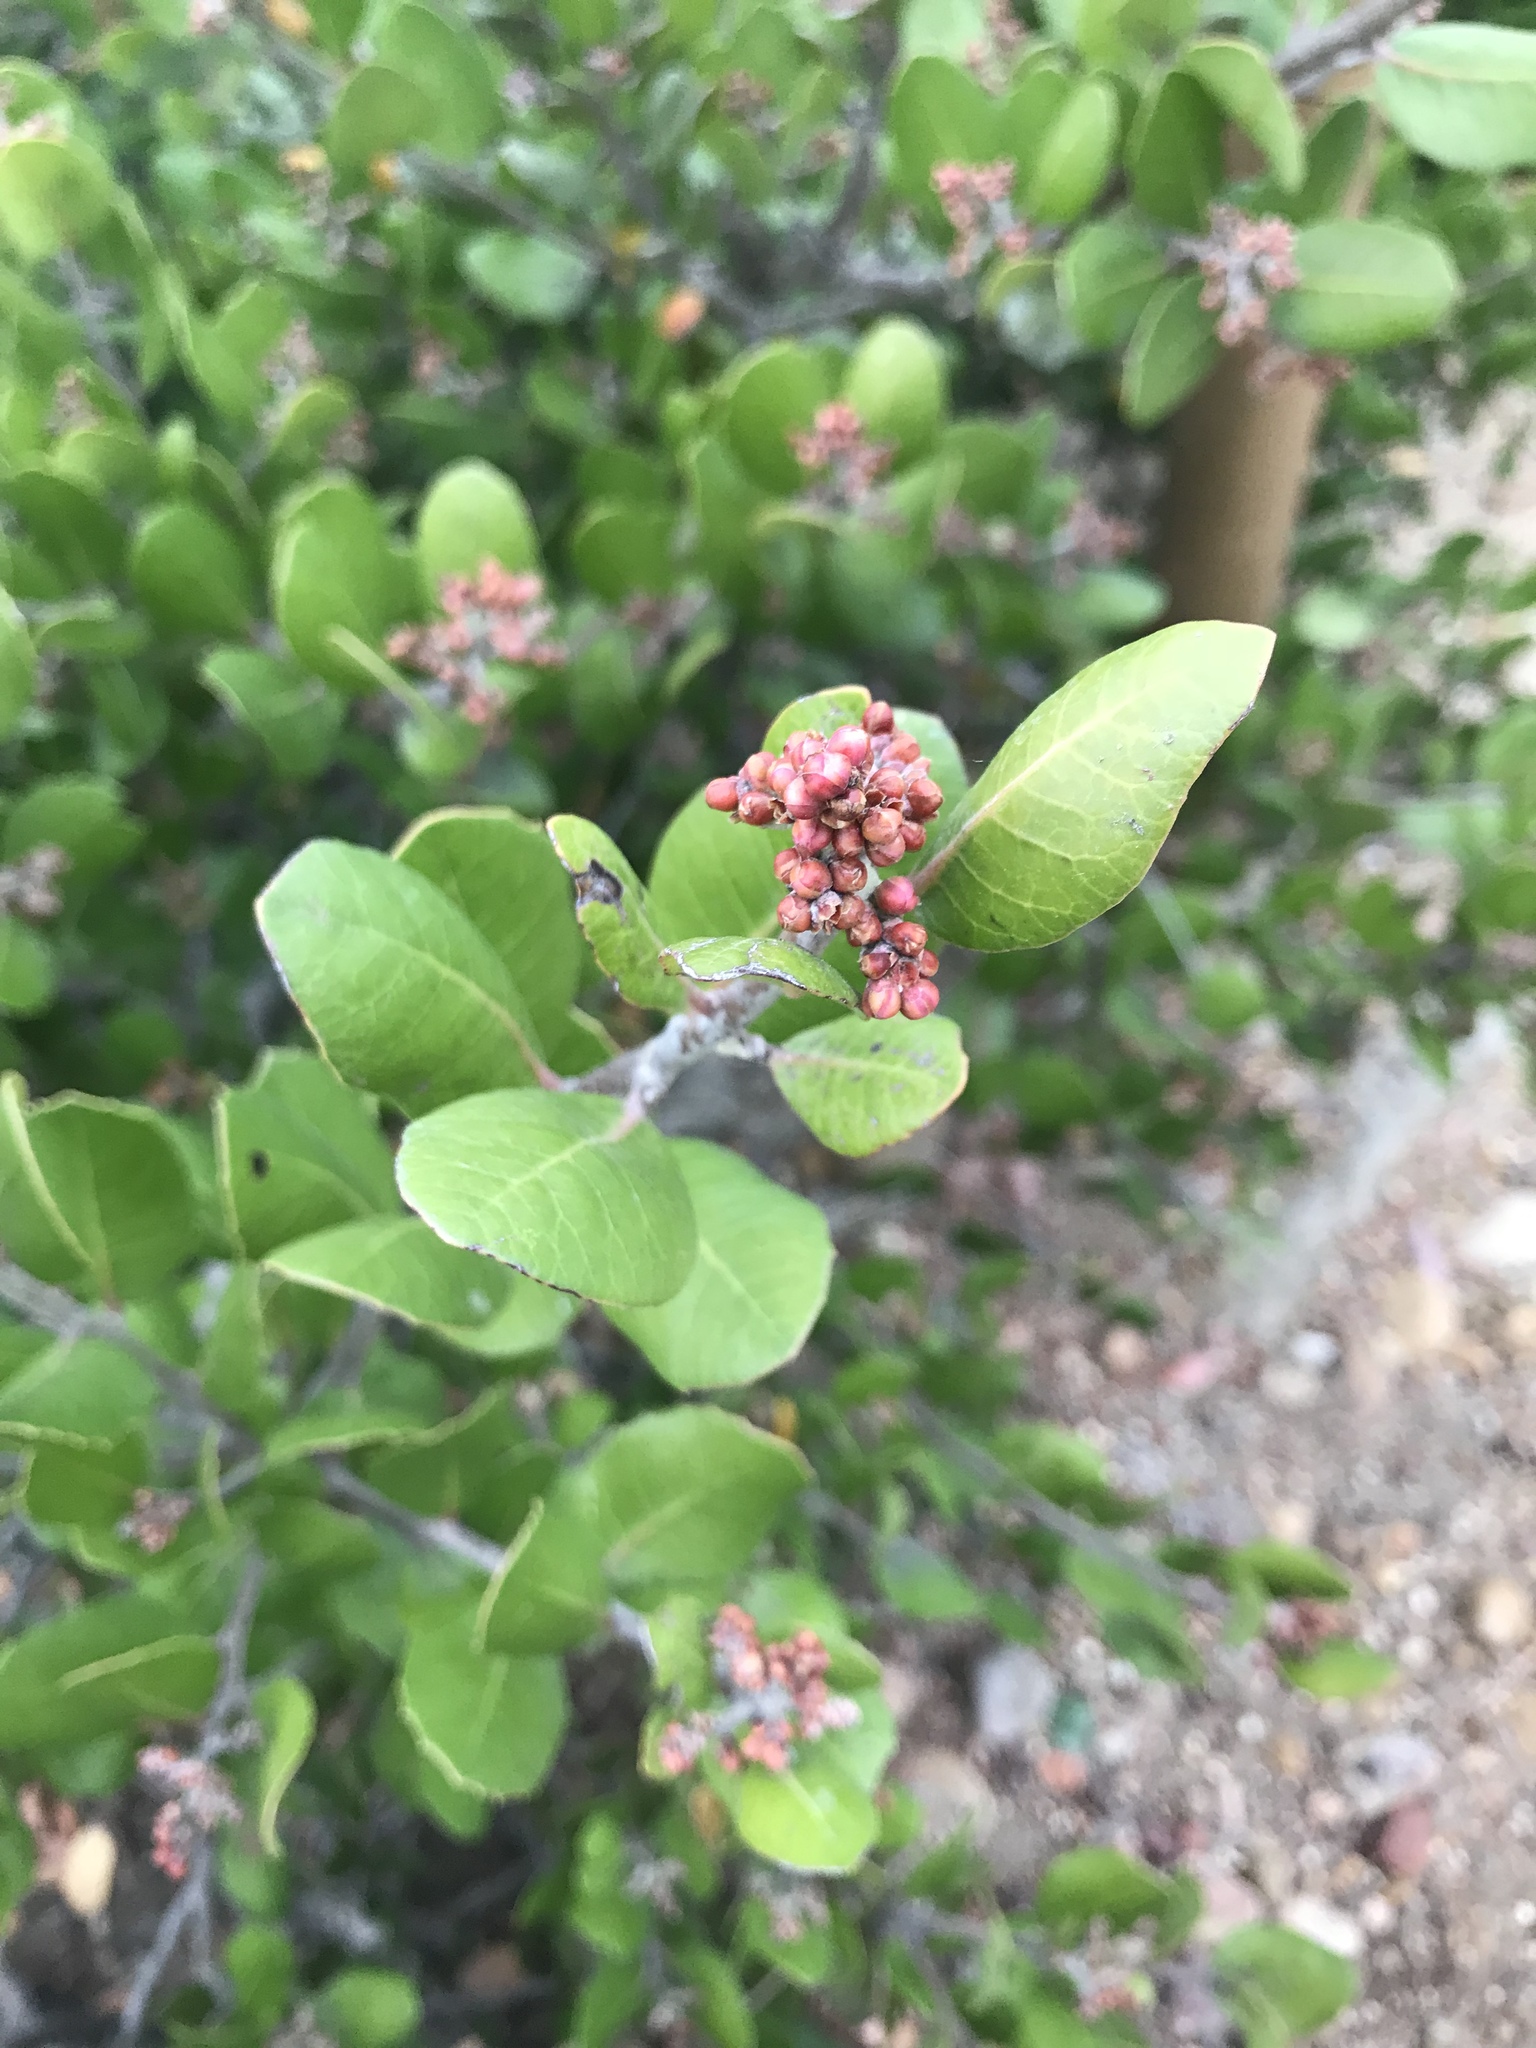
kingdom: Plantae
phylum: Tracheophyta
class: Magnoliopsida
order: Sapindales
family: Anacardiaceae
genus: Rhus
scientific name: Rhus integrifolia
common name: Lemonade sumac
